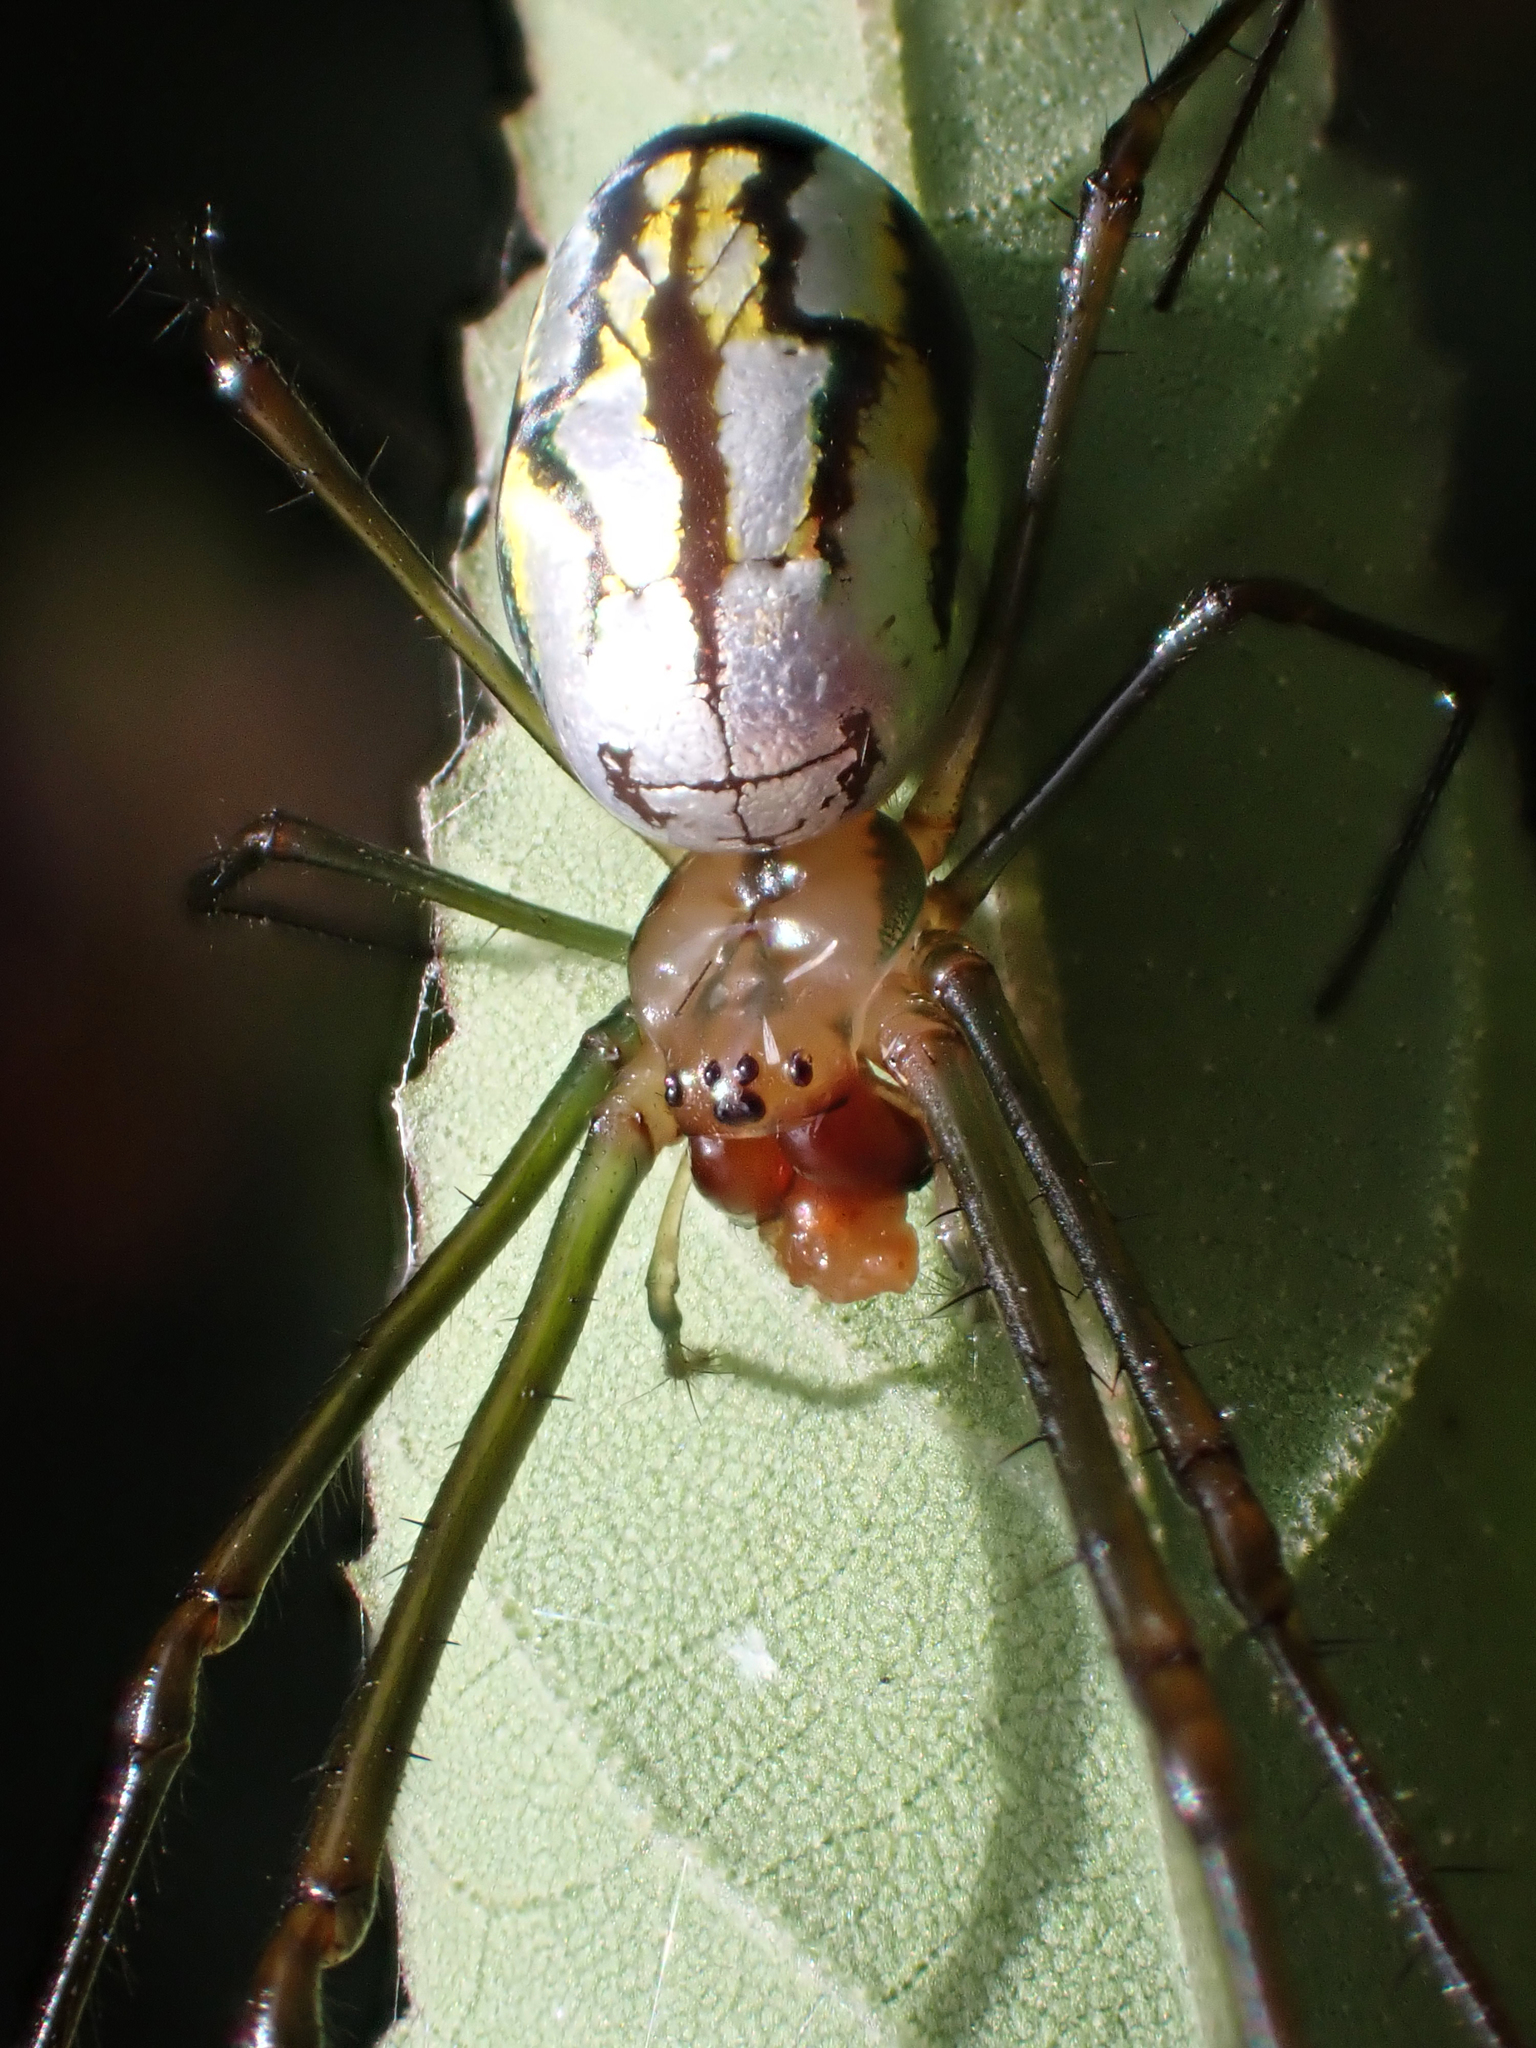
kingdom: Animalia
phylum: Arthropoda
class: Arachnida
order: Araneae
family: Tetragnathidae
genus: Leucauge
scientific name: Leucauge argyra
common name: Longjawed orb weavers
